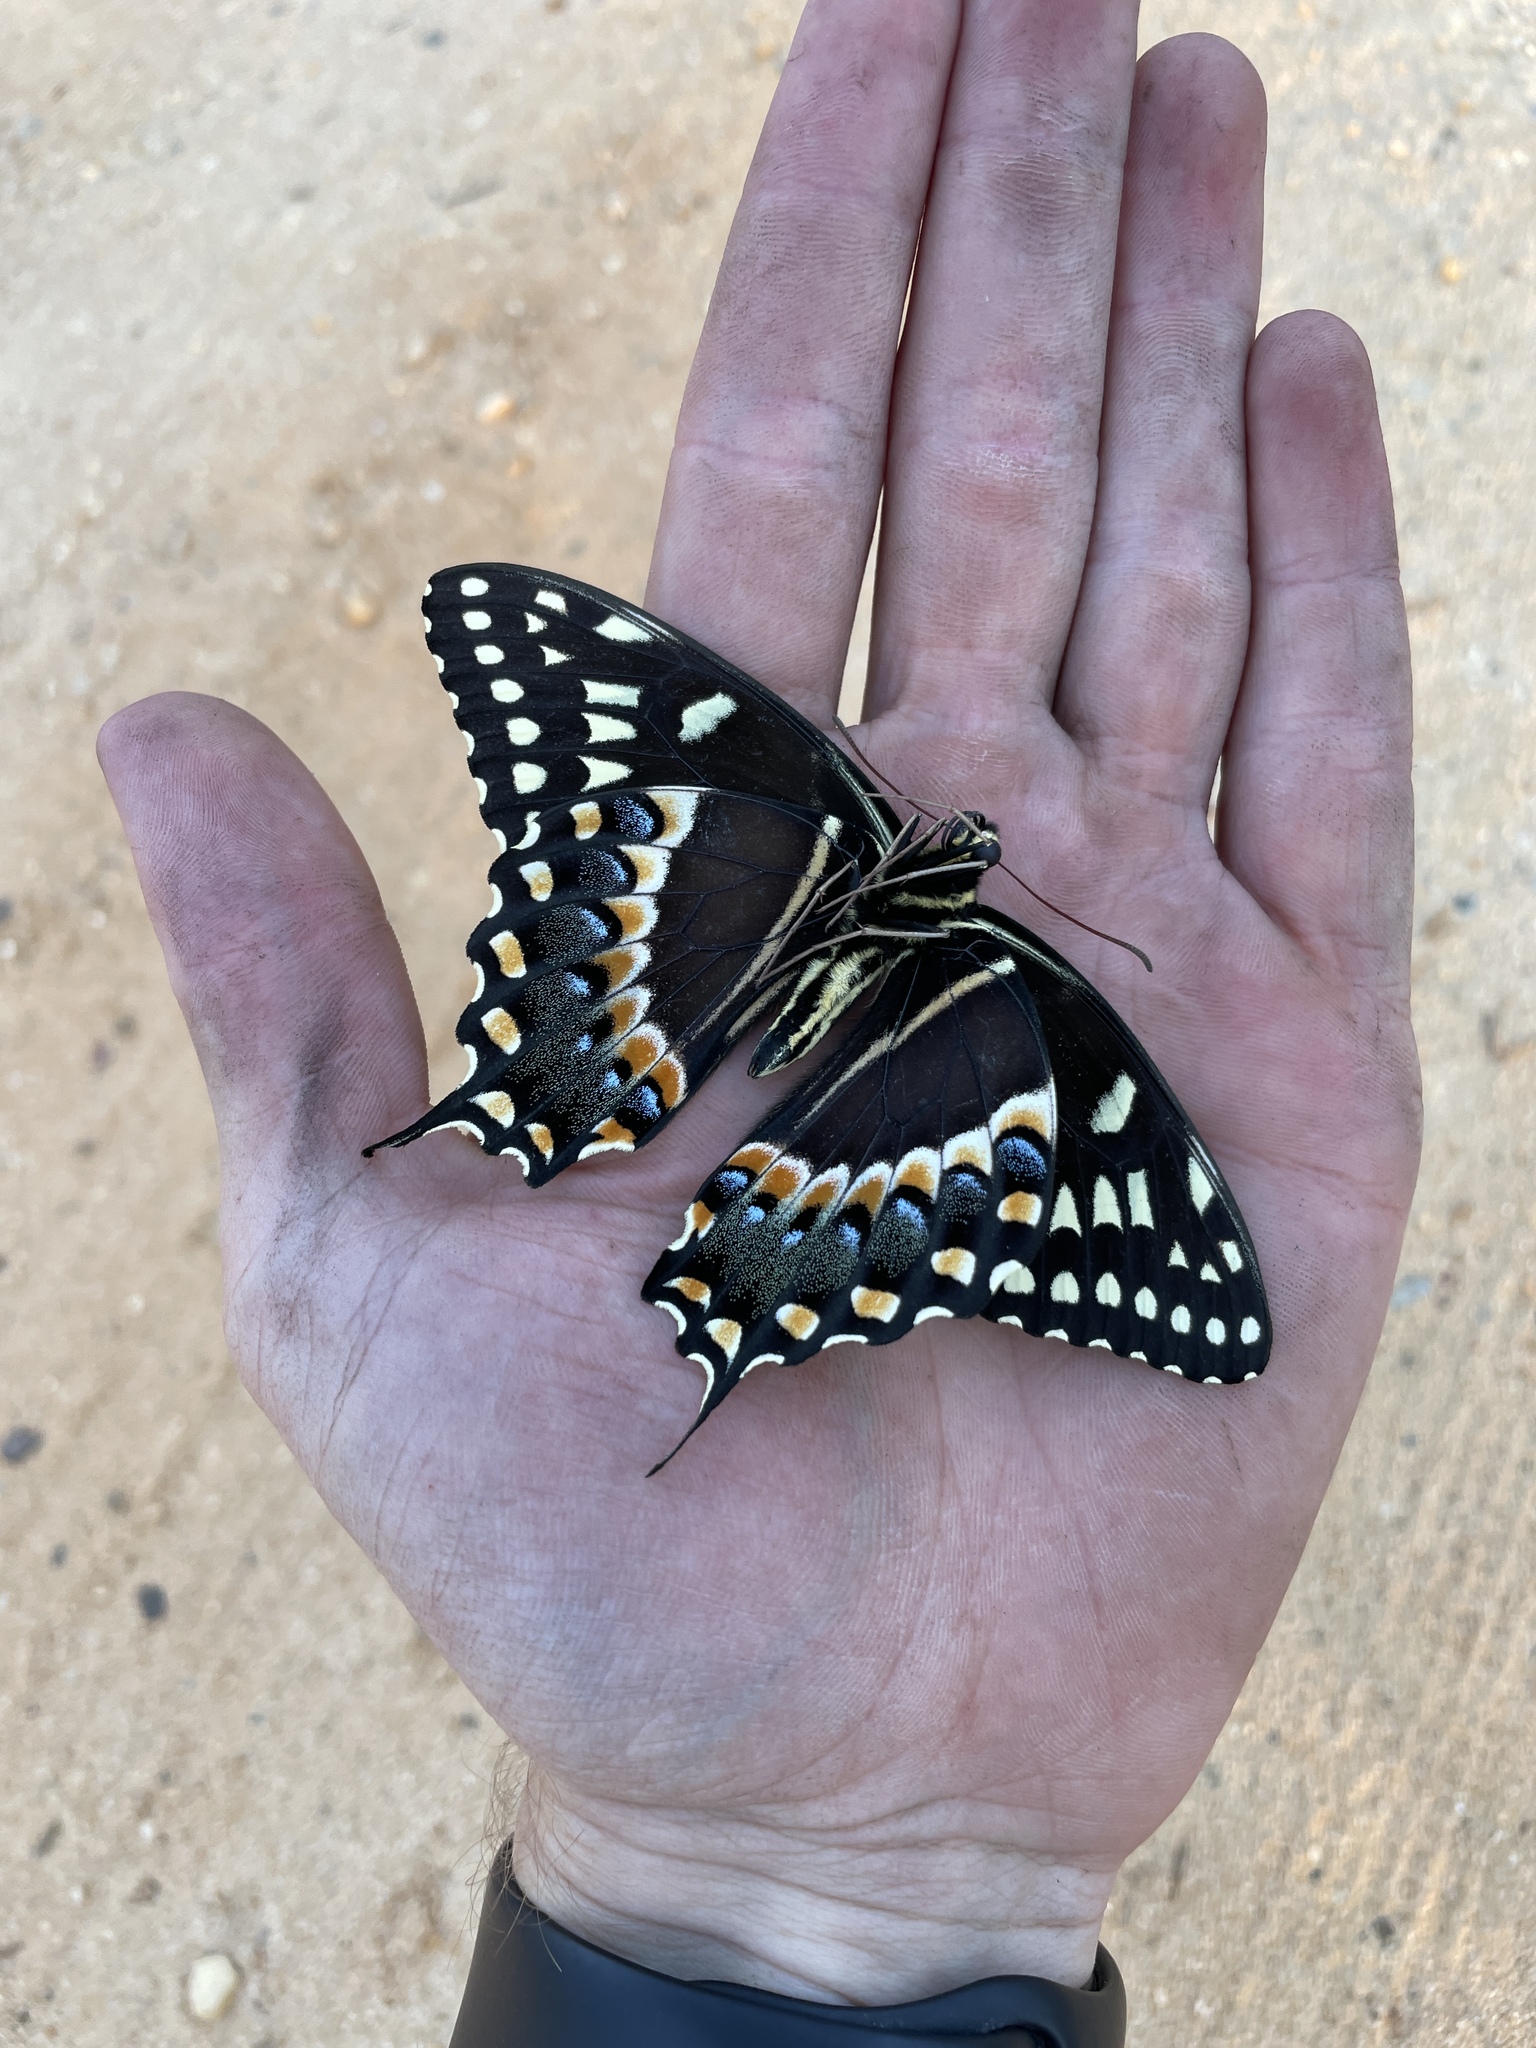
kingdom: Animalia
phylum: Arthropoda
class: Insecta
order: Lepidoptera
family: Papilionidae
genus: Papilio
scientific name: Papilio palamedes
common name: Palamedes swallowtail
